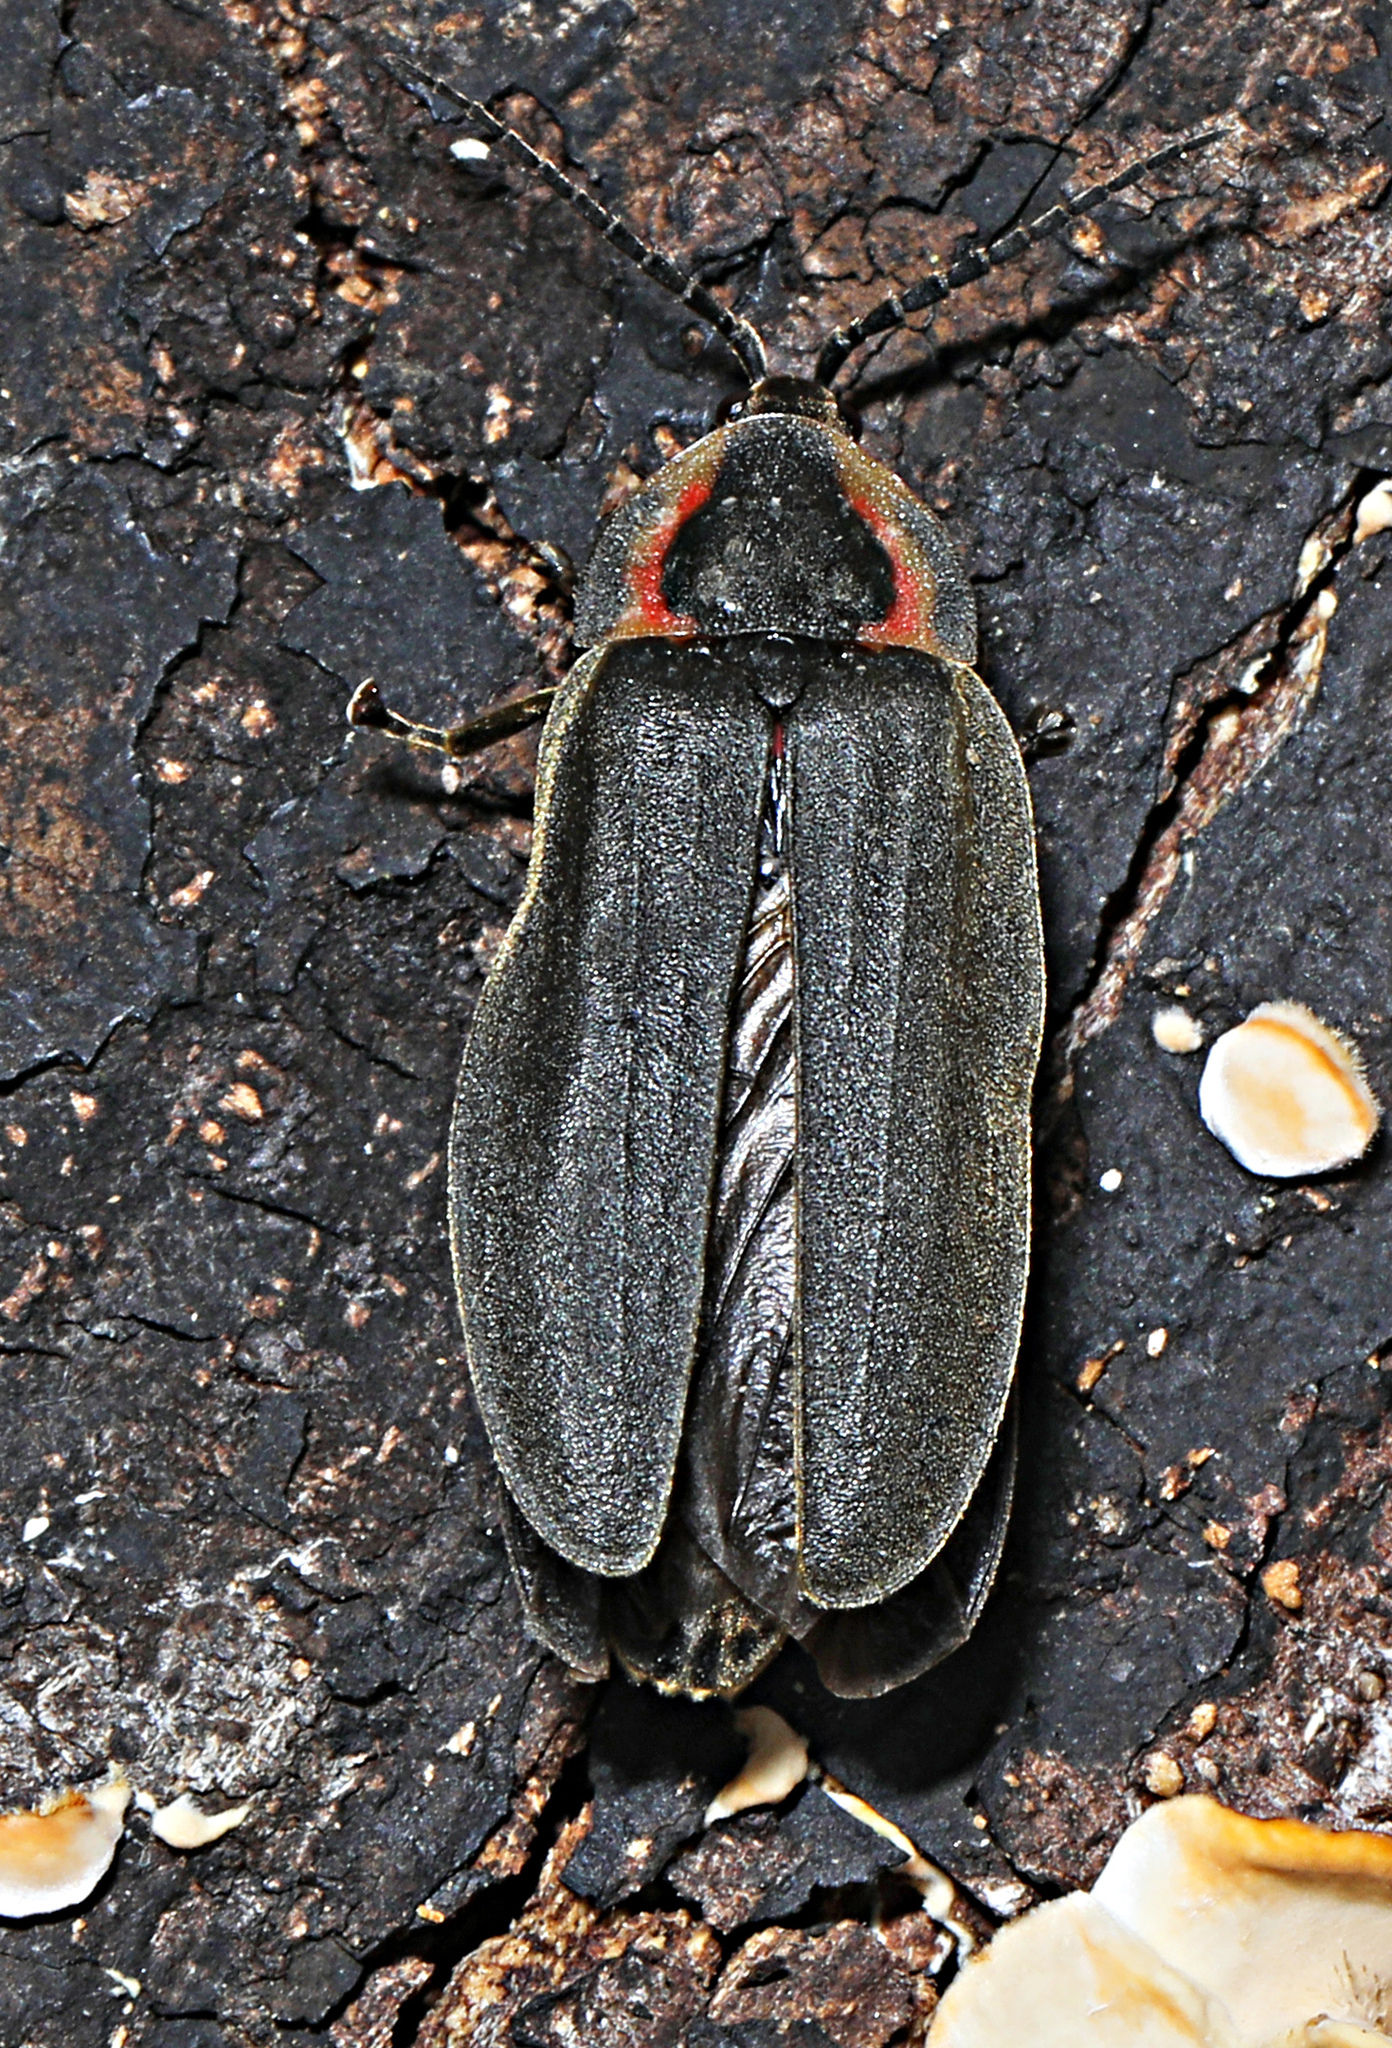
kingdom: Animalia
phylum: Arthropoda
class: Insecta
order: Coleoptera
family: Lampyridae
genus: Photinus
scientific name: Photinus corrusca
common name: Winter firefly
